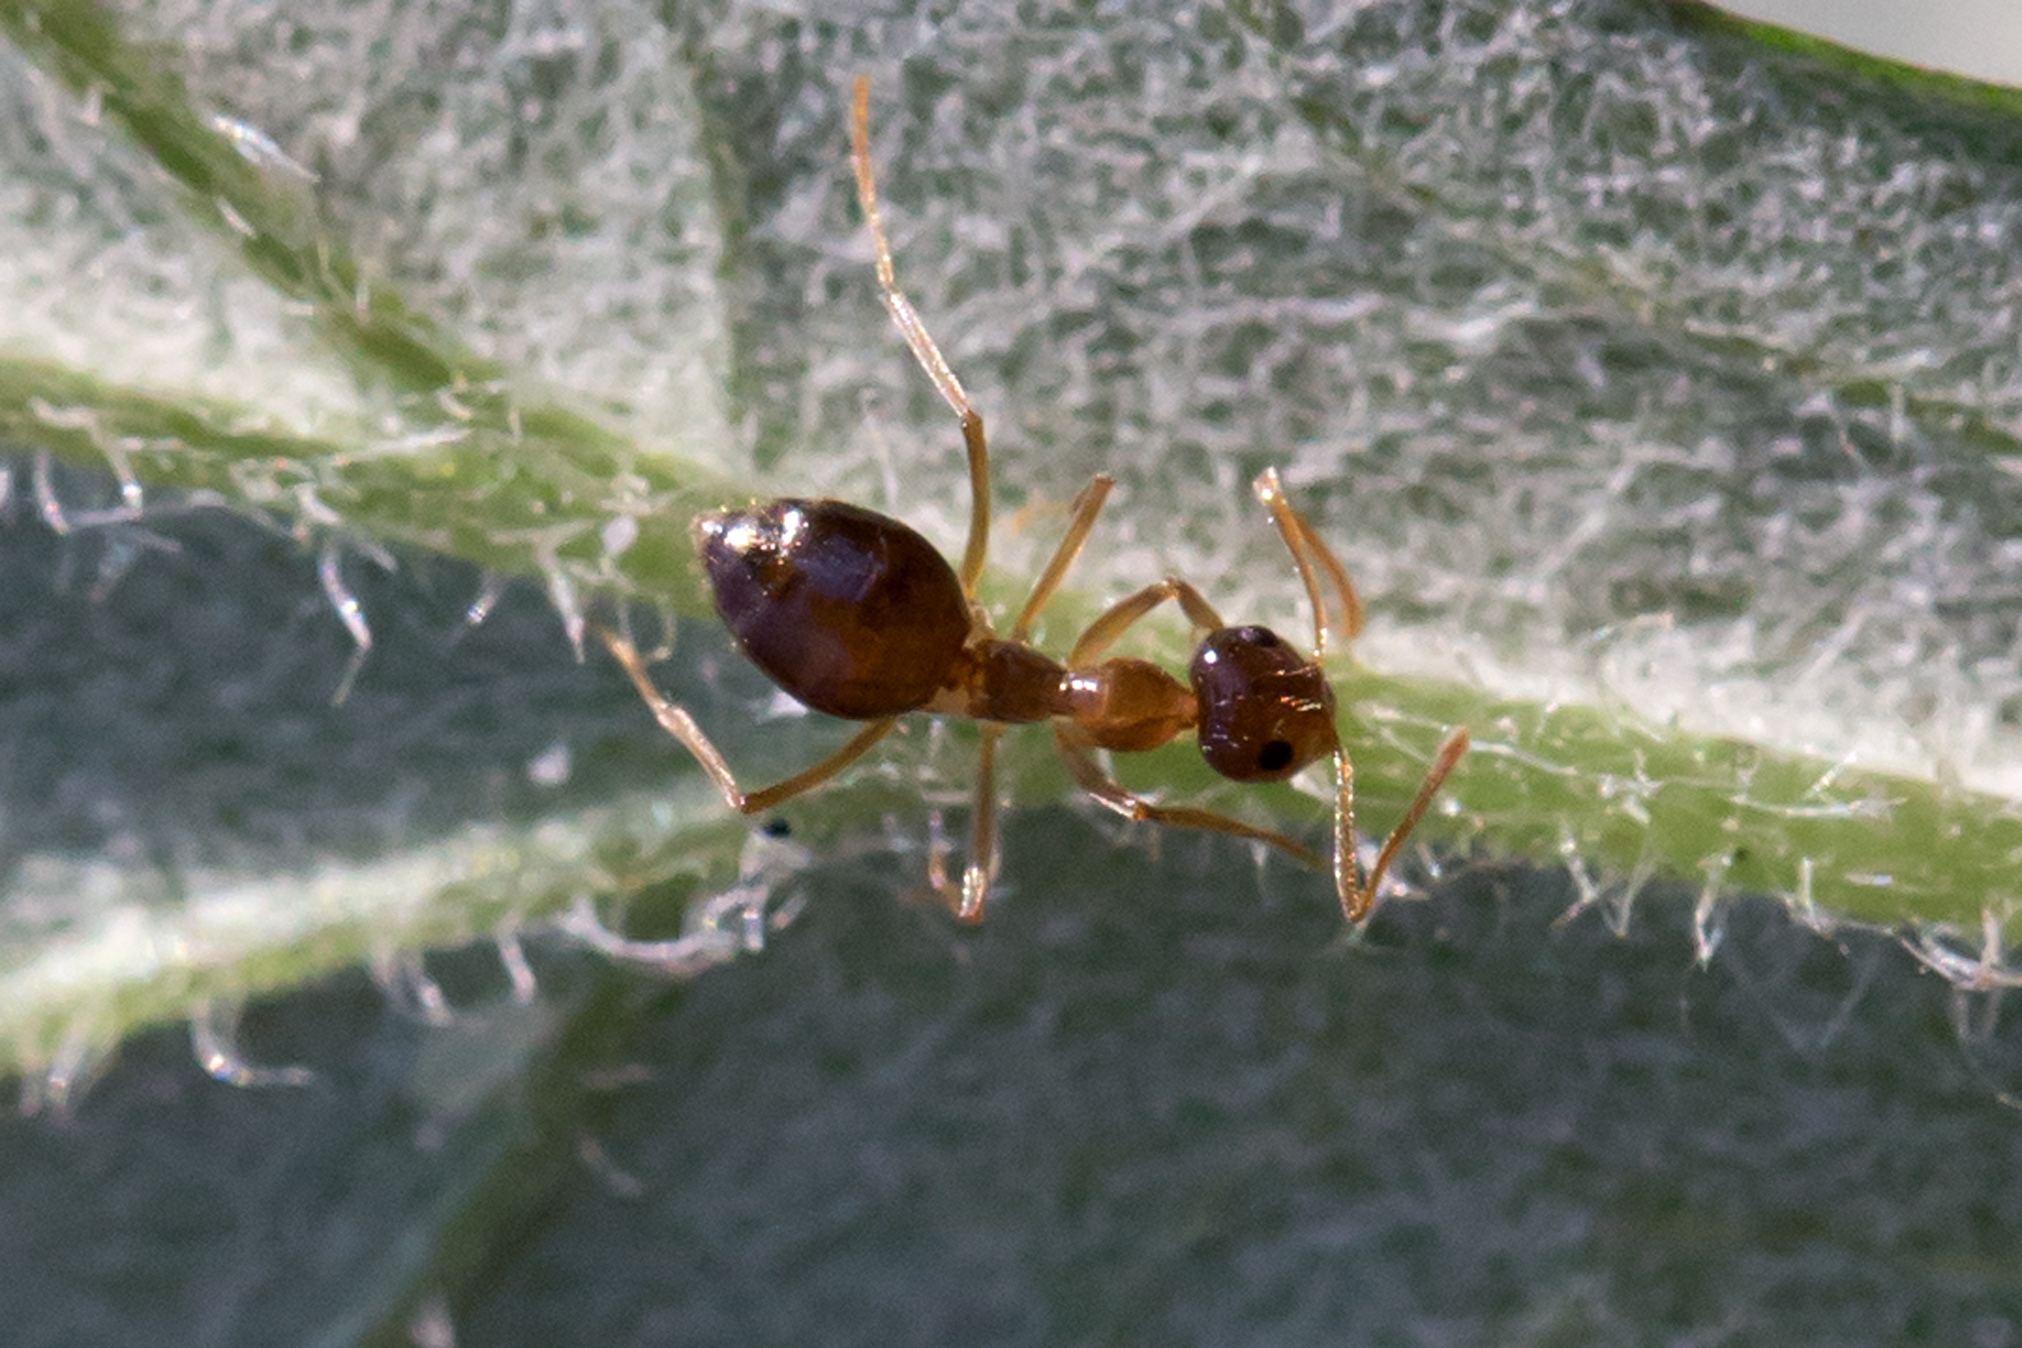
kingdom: Animalia
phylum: Arthropoda
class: Insecta
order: Hymenoptera
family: Formicidae
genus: Prenolepis
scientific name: Prenolepis imparis
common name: Small honey ant
